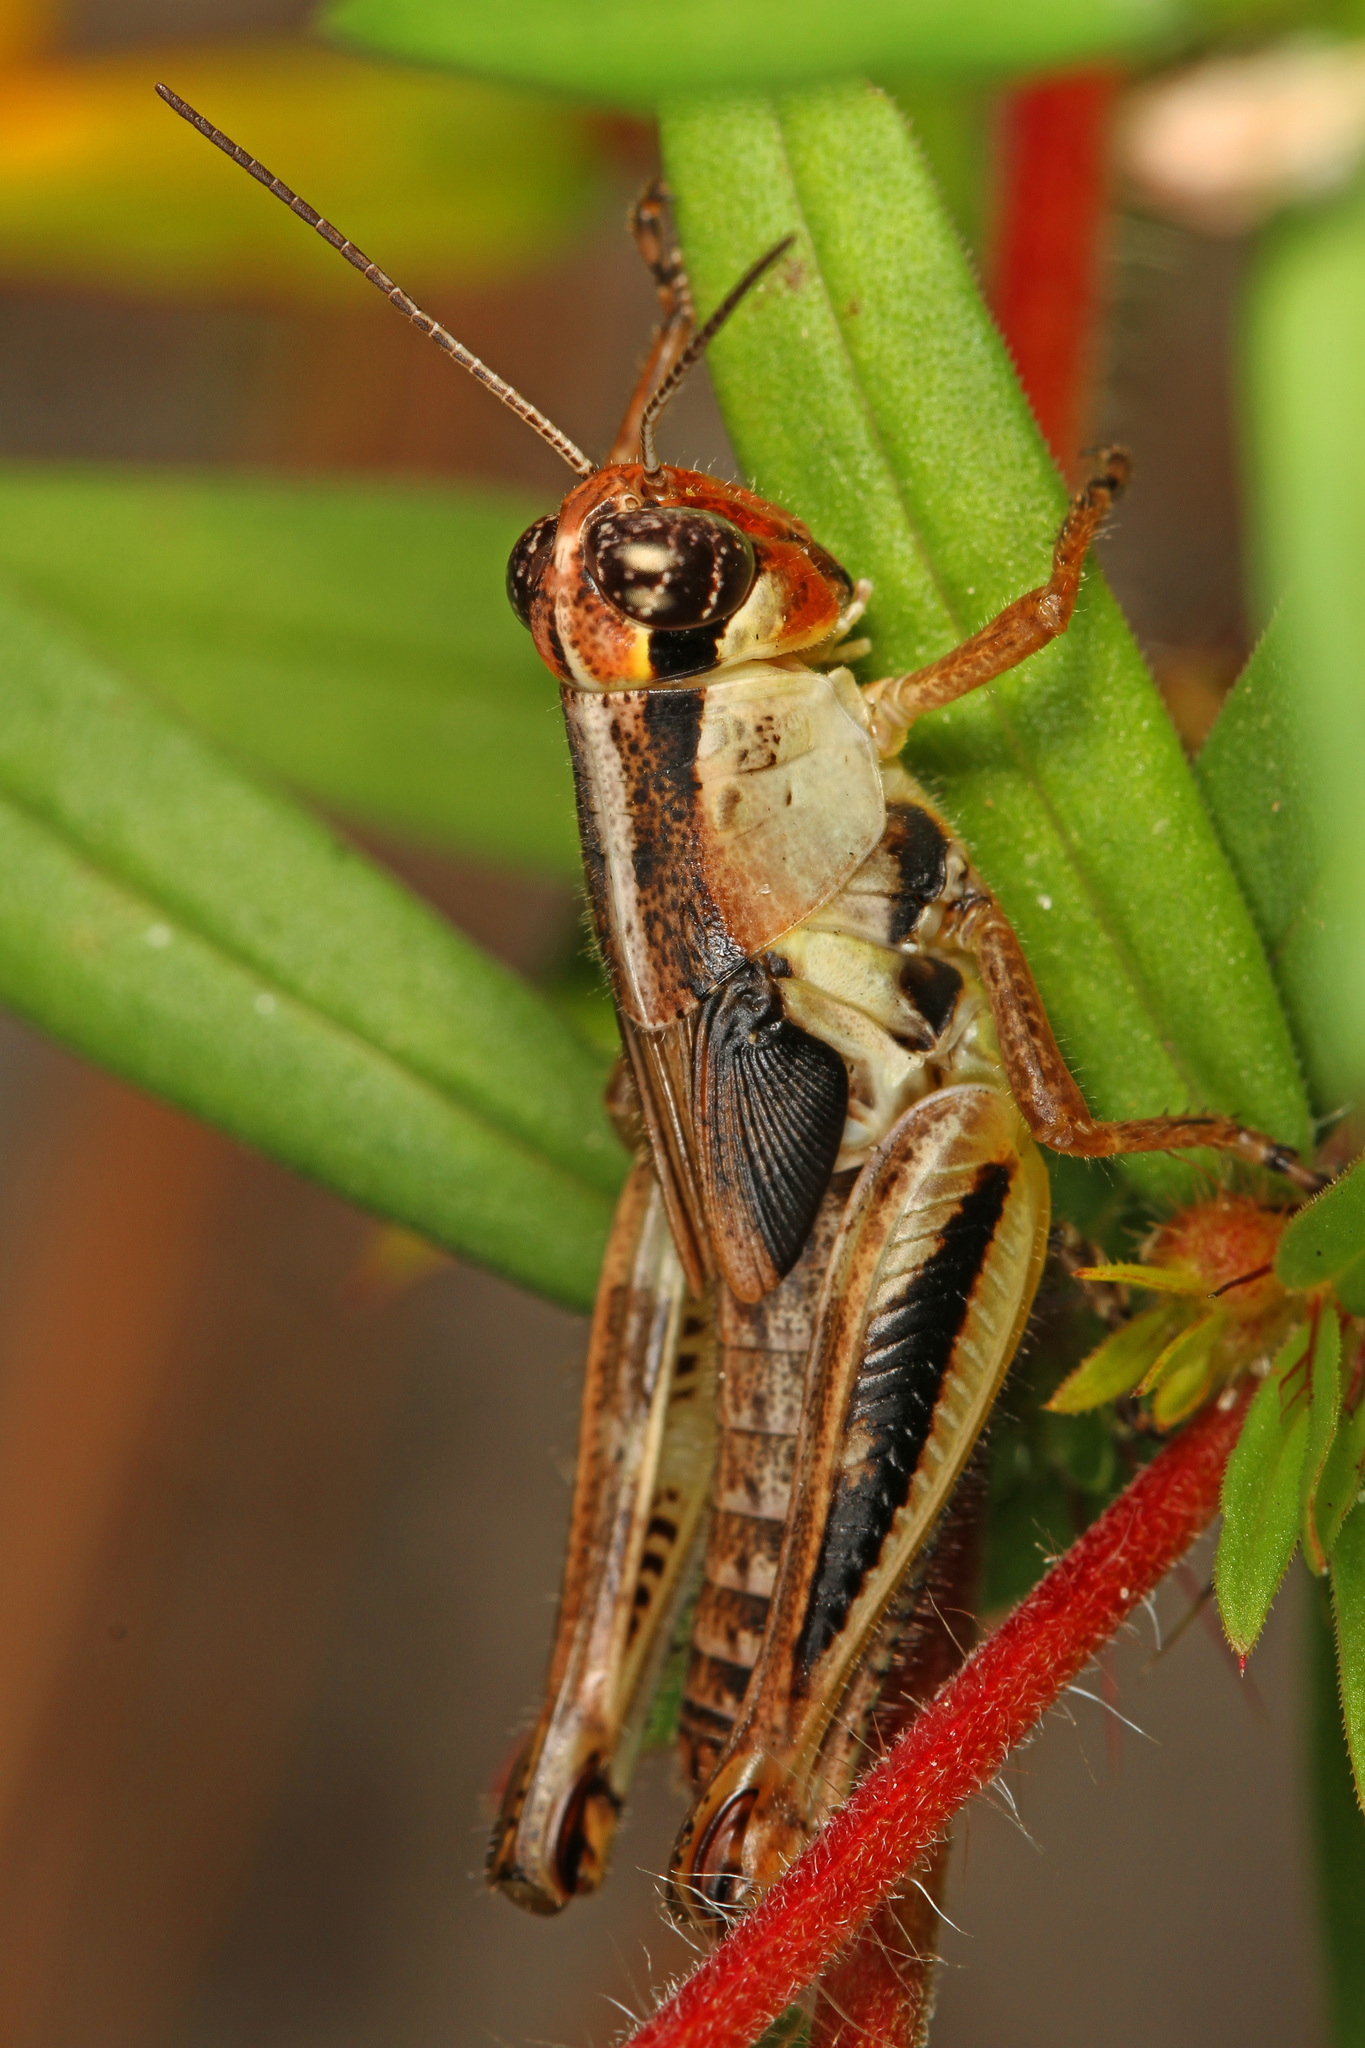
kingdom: Animalia
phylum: Arthropoda
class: Insecta
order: Orthoptera
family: Acrididae
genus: Melanoplus
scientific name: Melanoplus keeleri
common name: Keeler grasshopper
